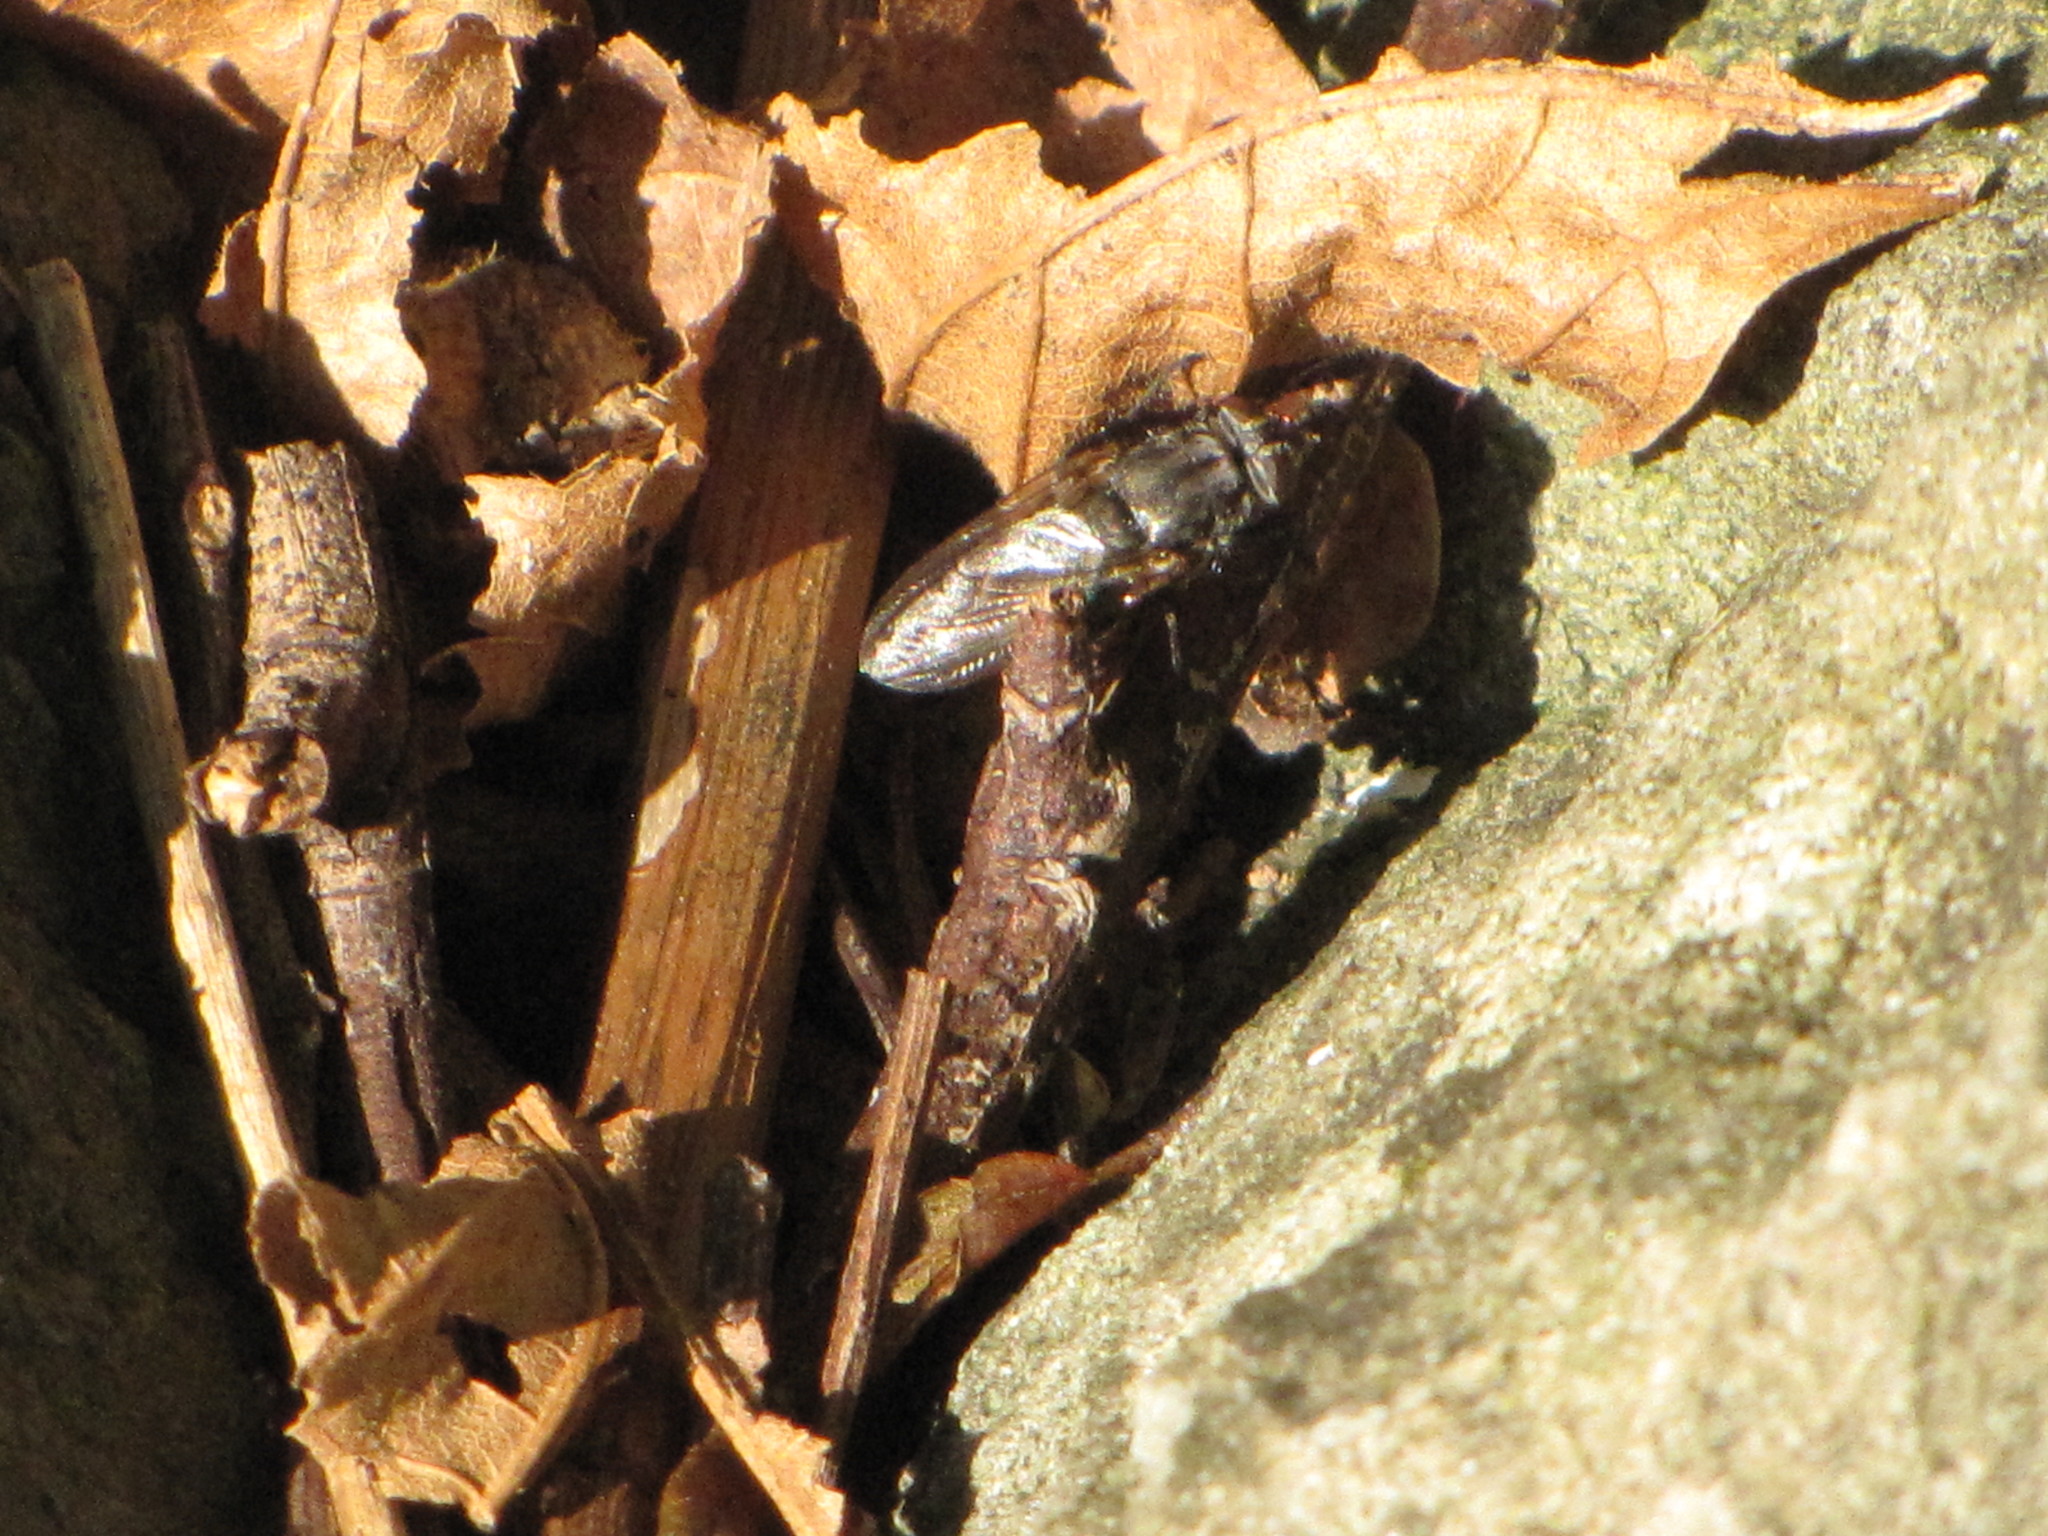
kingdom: Animalia
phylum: Arthropoda
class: Insecta
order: Diptera
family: Polleniidae
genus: Pollenia
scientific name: Pollenia vagabunda
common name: Vagabund cluster fly
